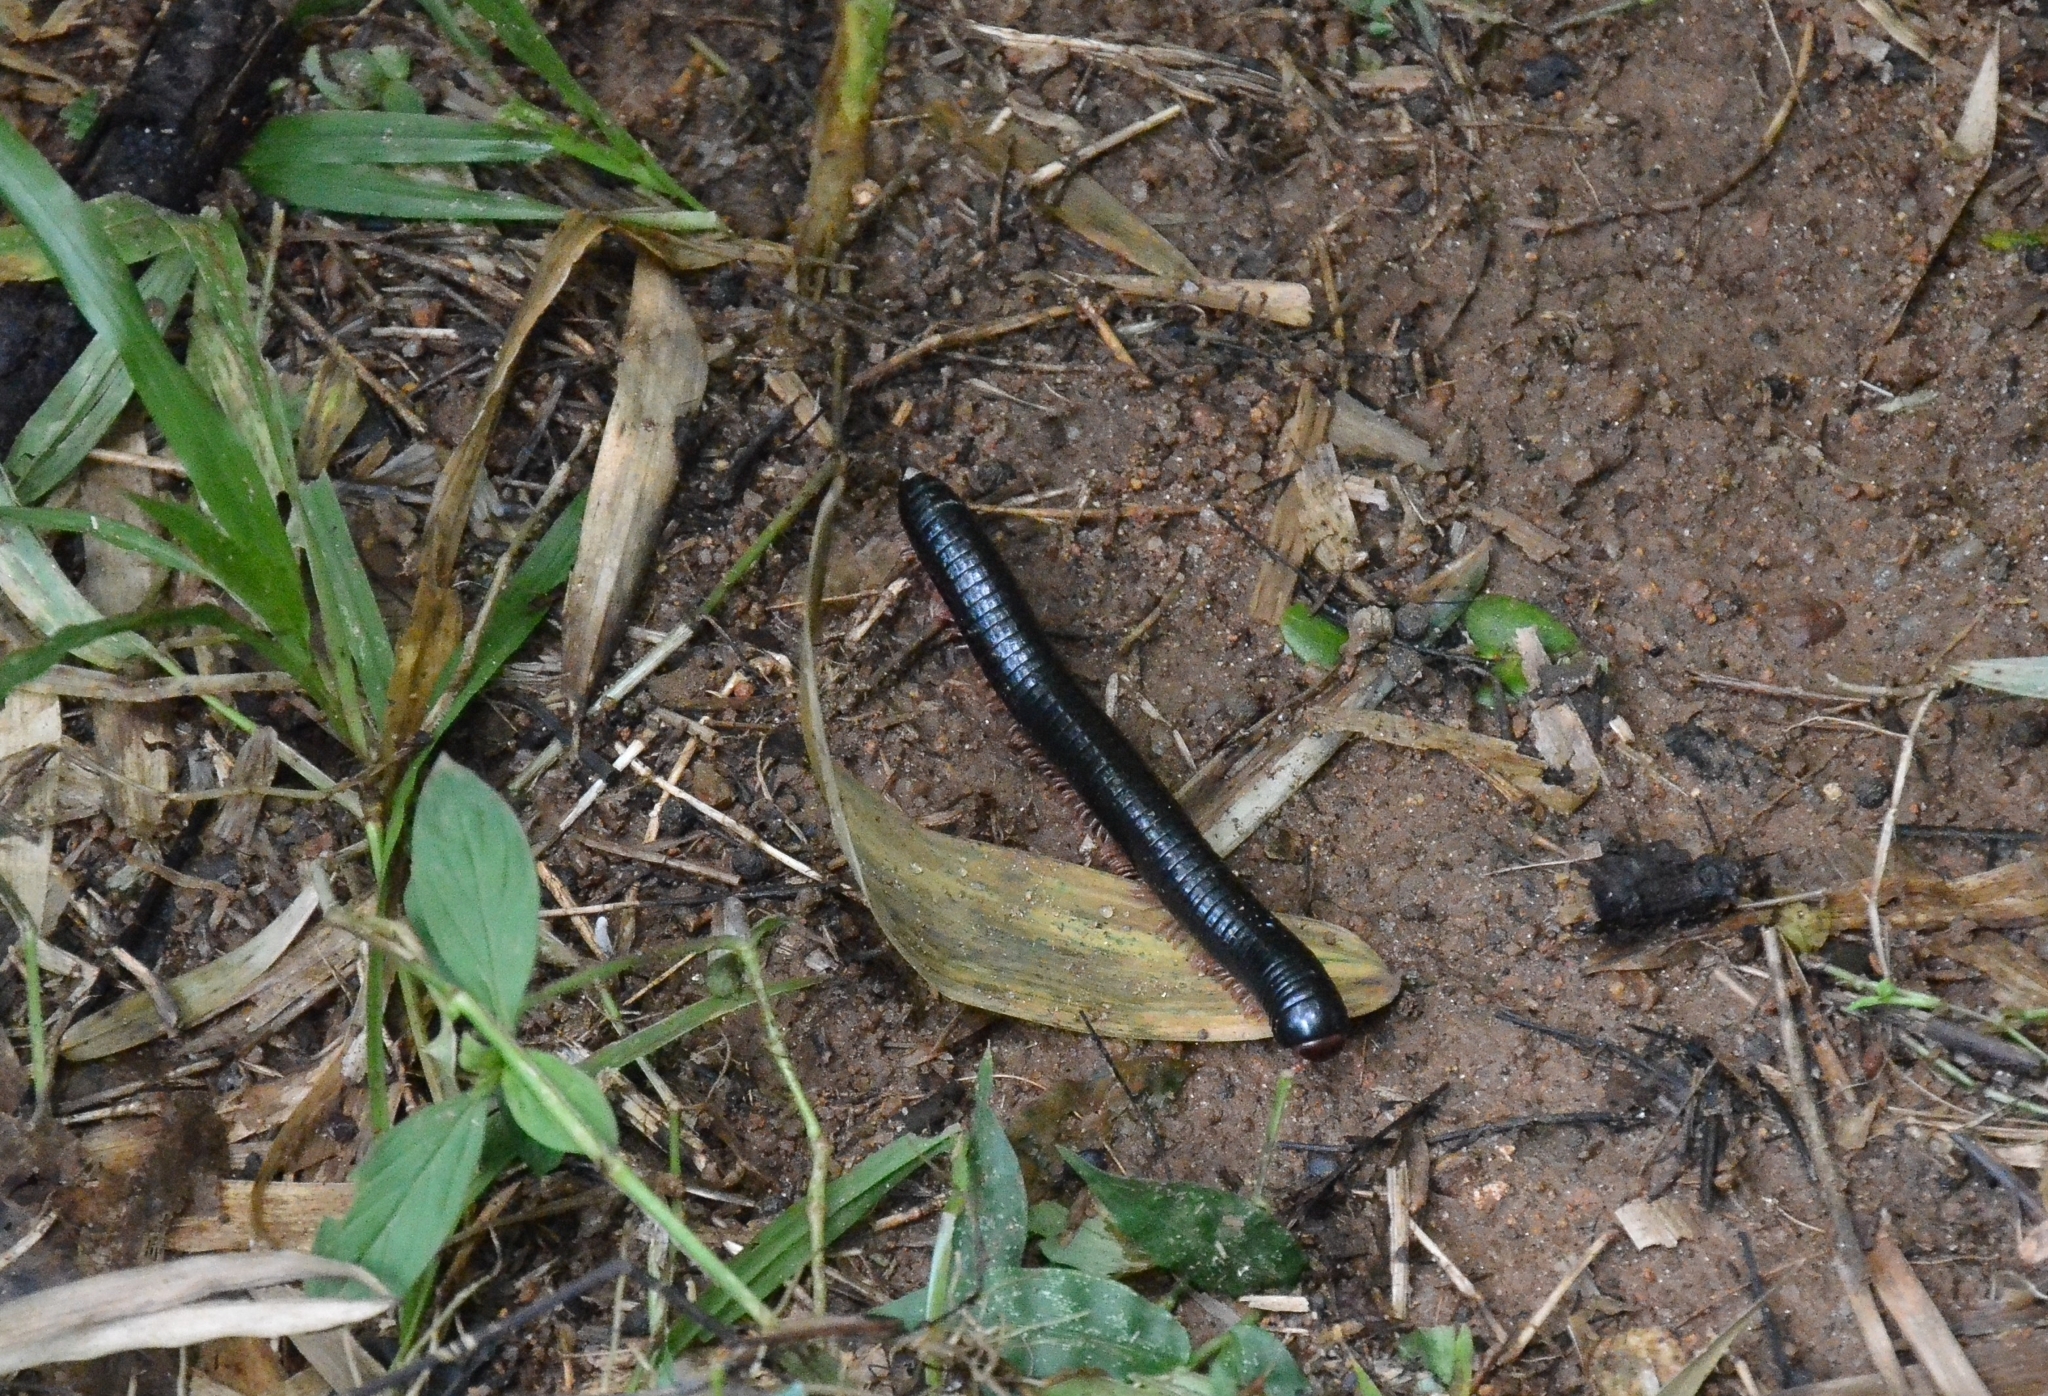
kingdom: Animalia
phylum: Arthropoda
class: Diplopoda
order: Spirostreptida
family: Harpagophoridae
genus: Phyllogonostreptus
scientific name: Phyllogonostreptus nigrolabiatus
